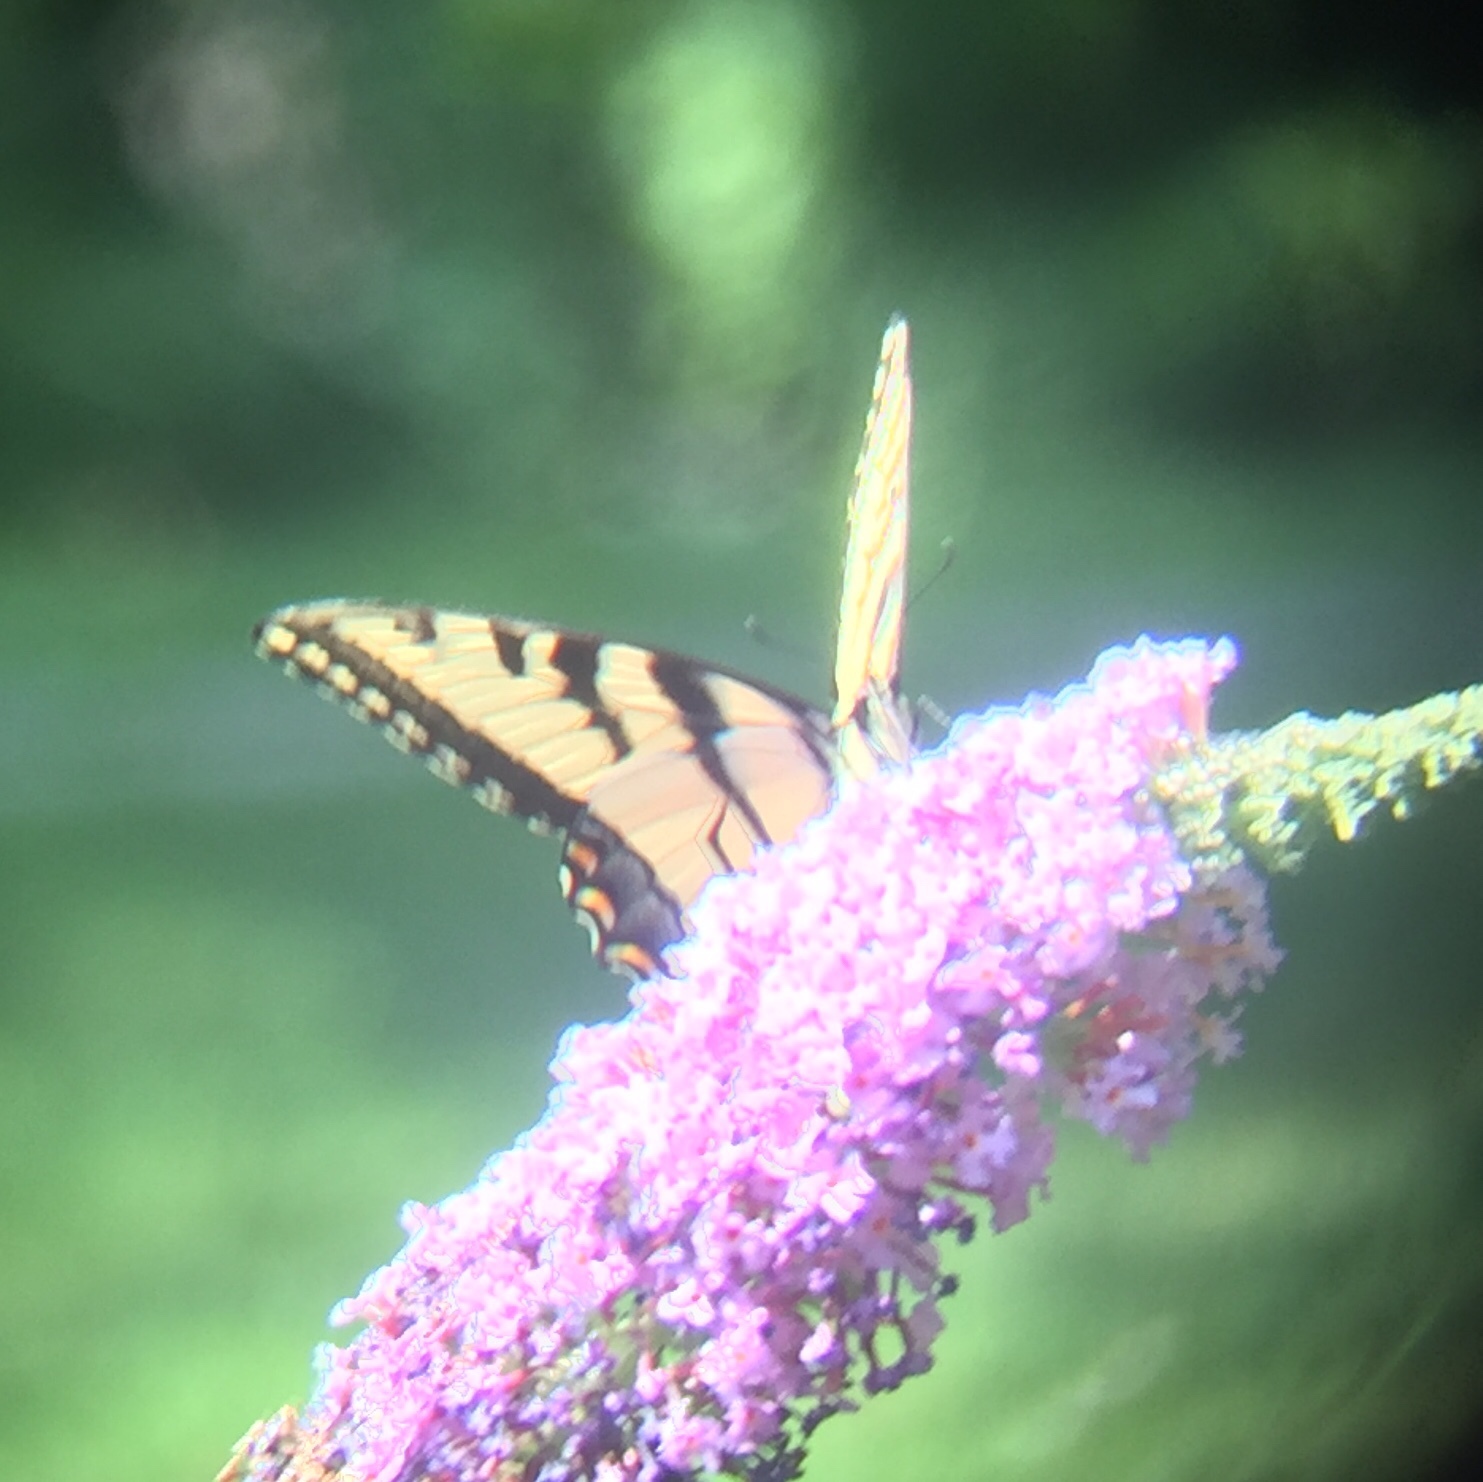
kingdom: Animalia
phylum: Arthropoda
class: Insecta
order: Lepidoptera
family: Papilionidae
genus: Papilio
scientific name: Papilio glaucus
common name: Tiger swallowtail
